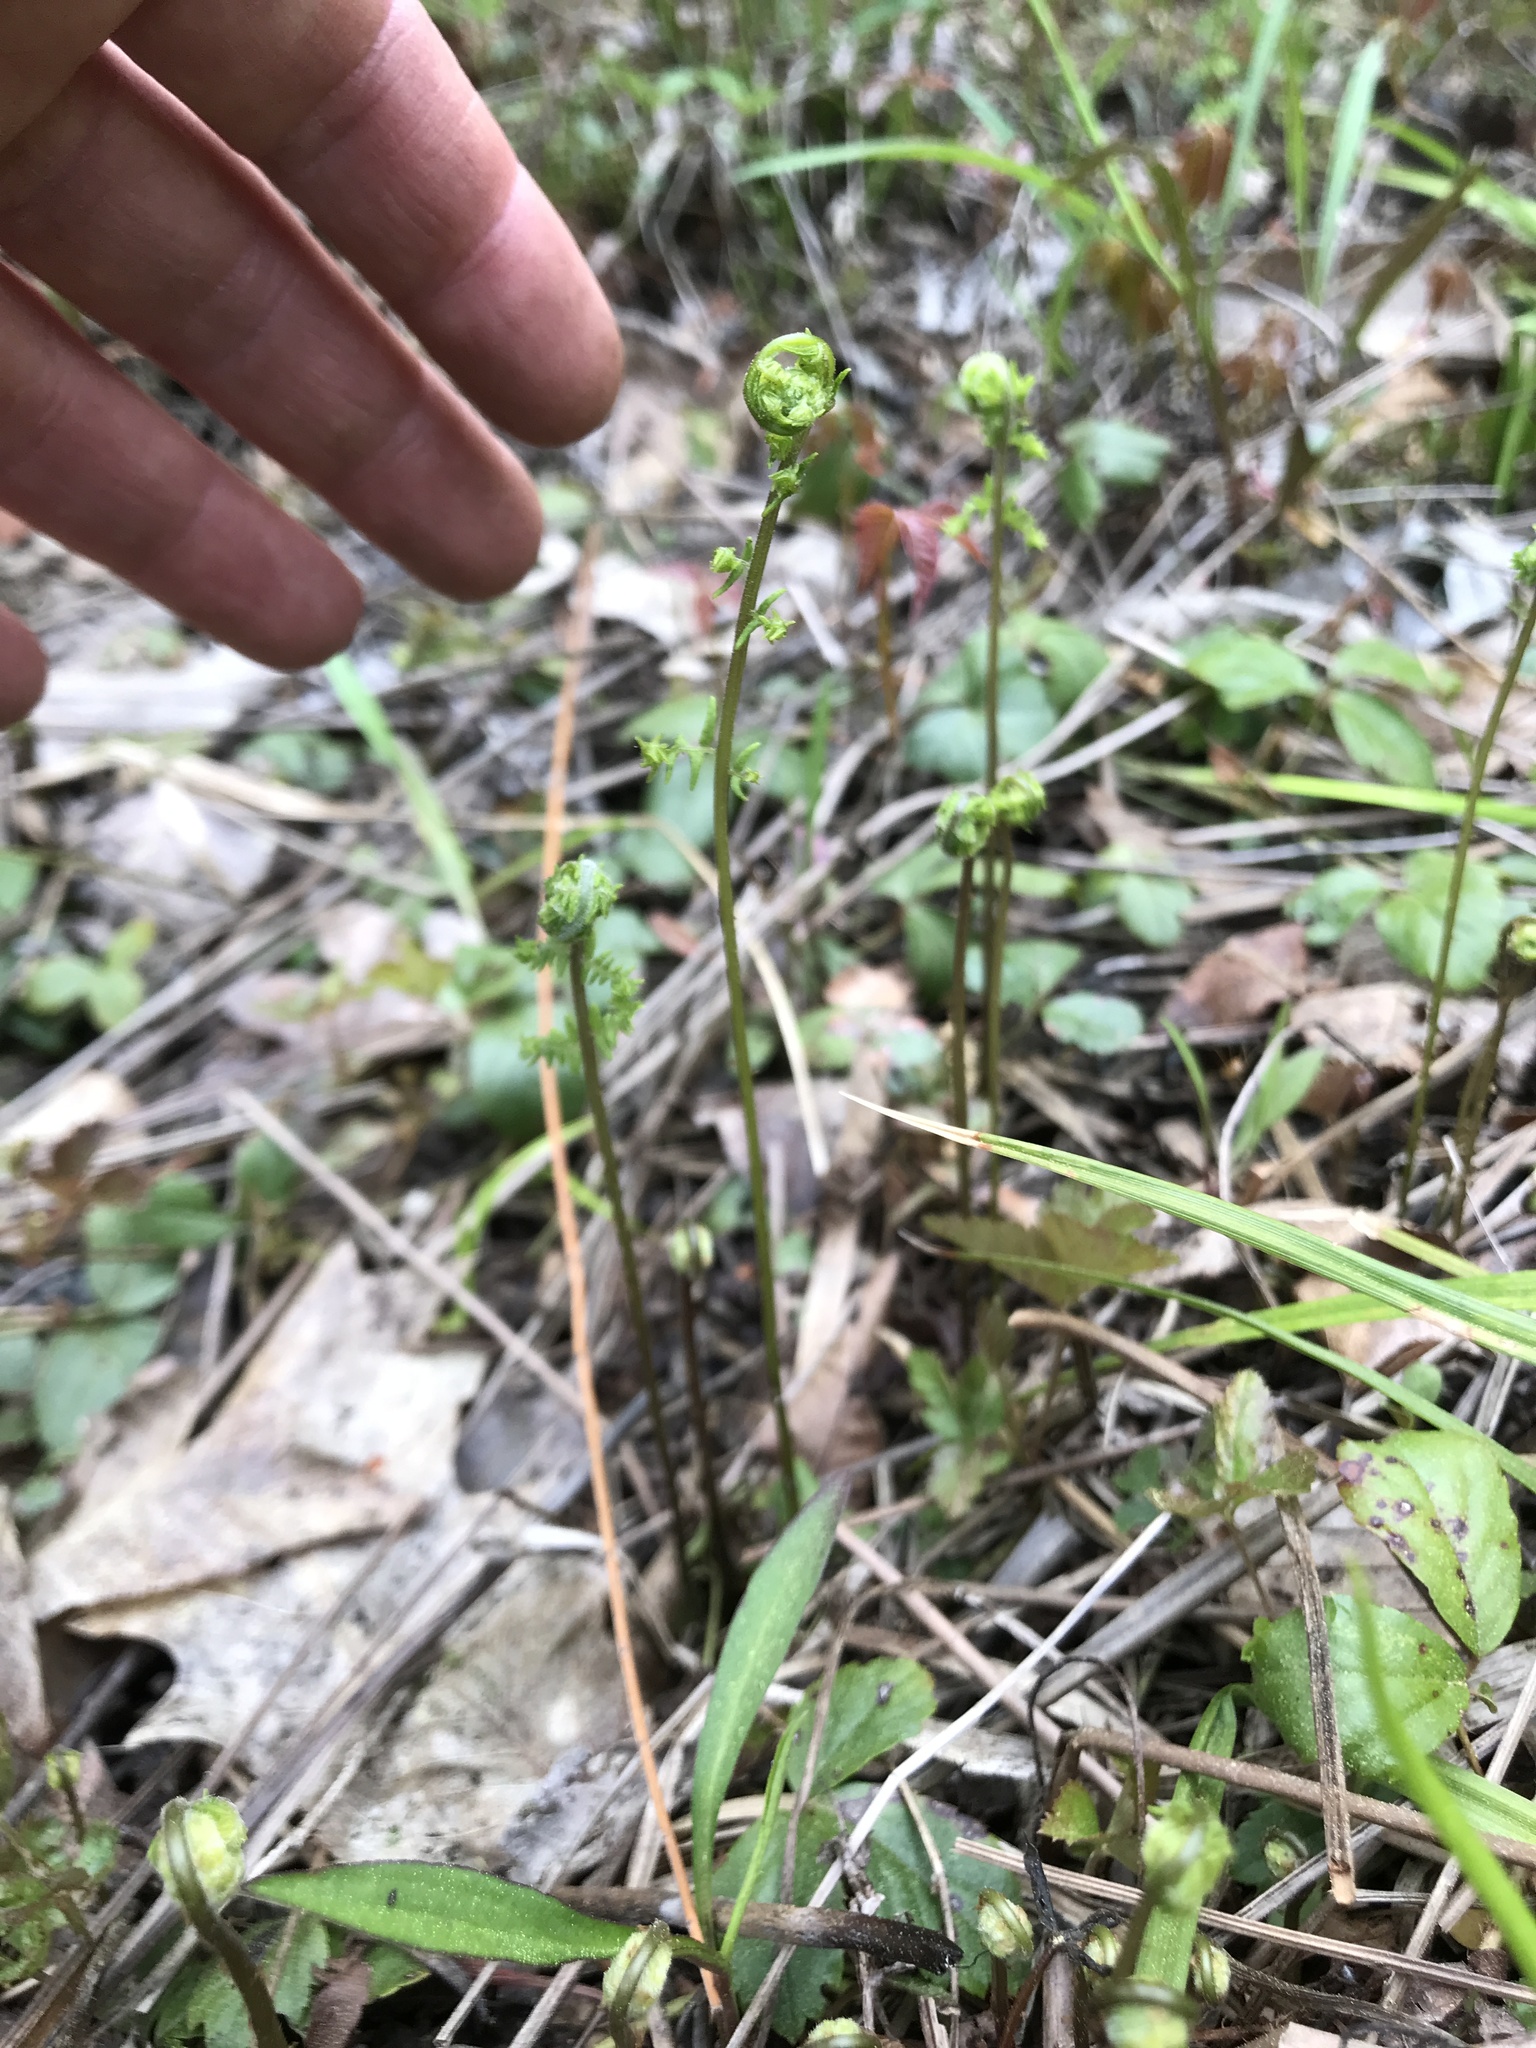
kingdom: Plantae
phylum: Tracheophyta
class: Polypodiopsida
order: Polypodiales
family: Thelypteridaceae
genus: Thelypteris
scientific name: Thelypteris palustris
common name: Marsh fern
